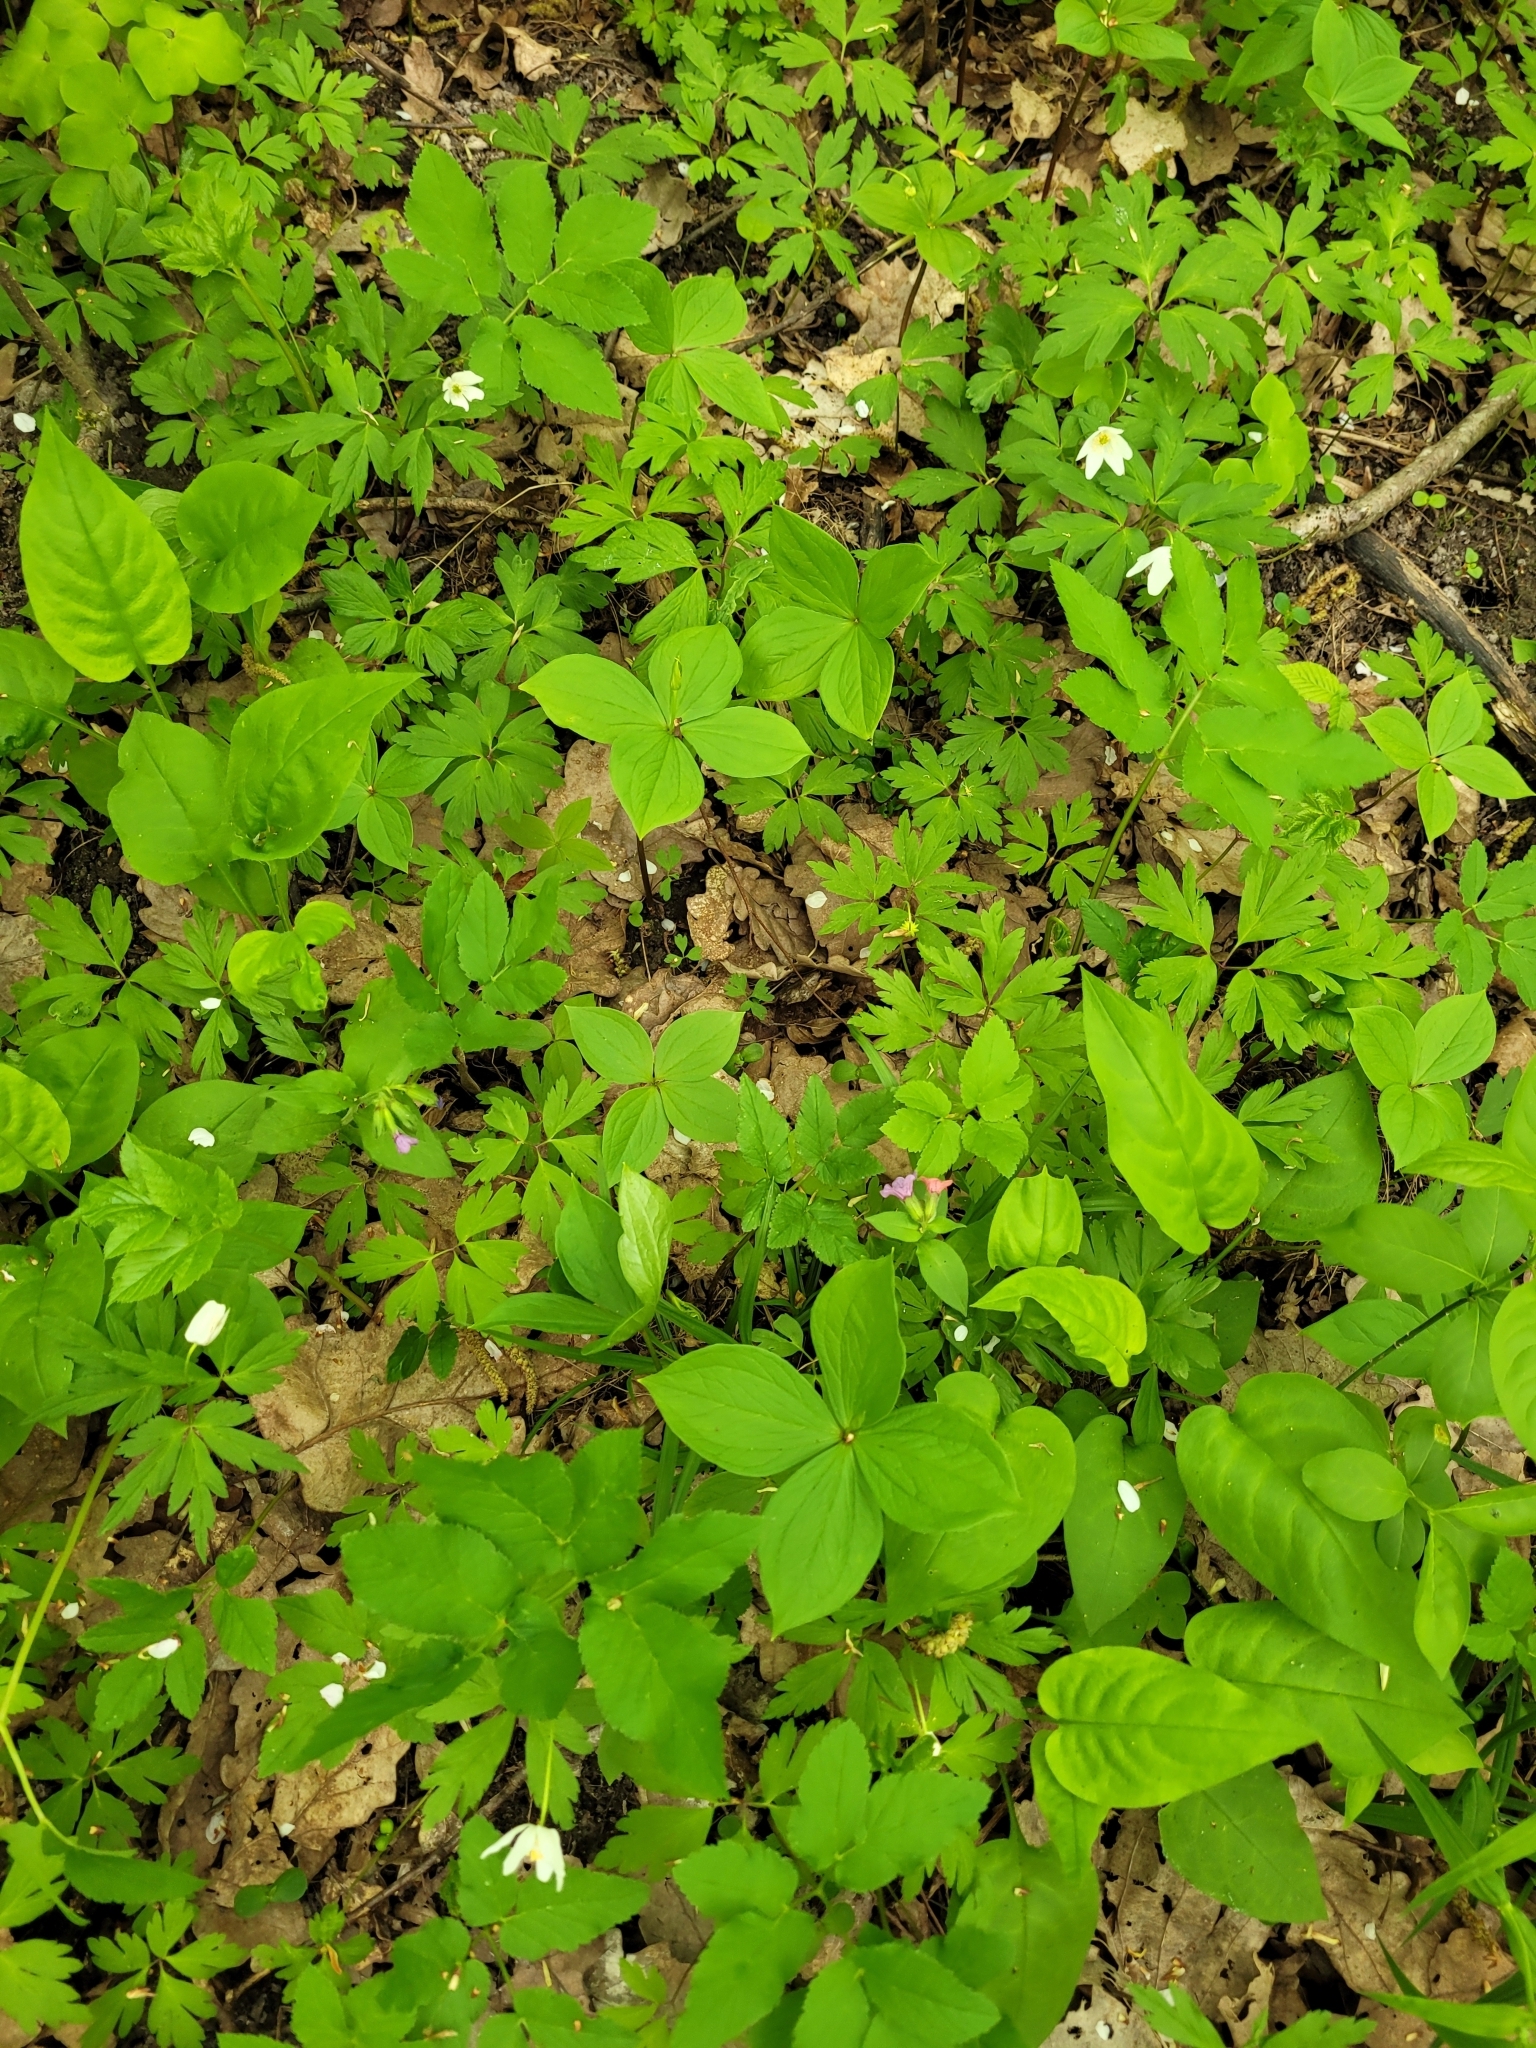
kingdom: Plantae
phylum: Tracheophyta
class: Liliopsida
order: Liliales
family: Melanthiaceae
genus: Paris
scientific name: Paris quadrifolia
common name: Herb-paris
